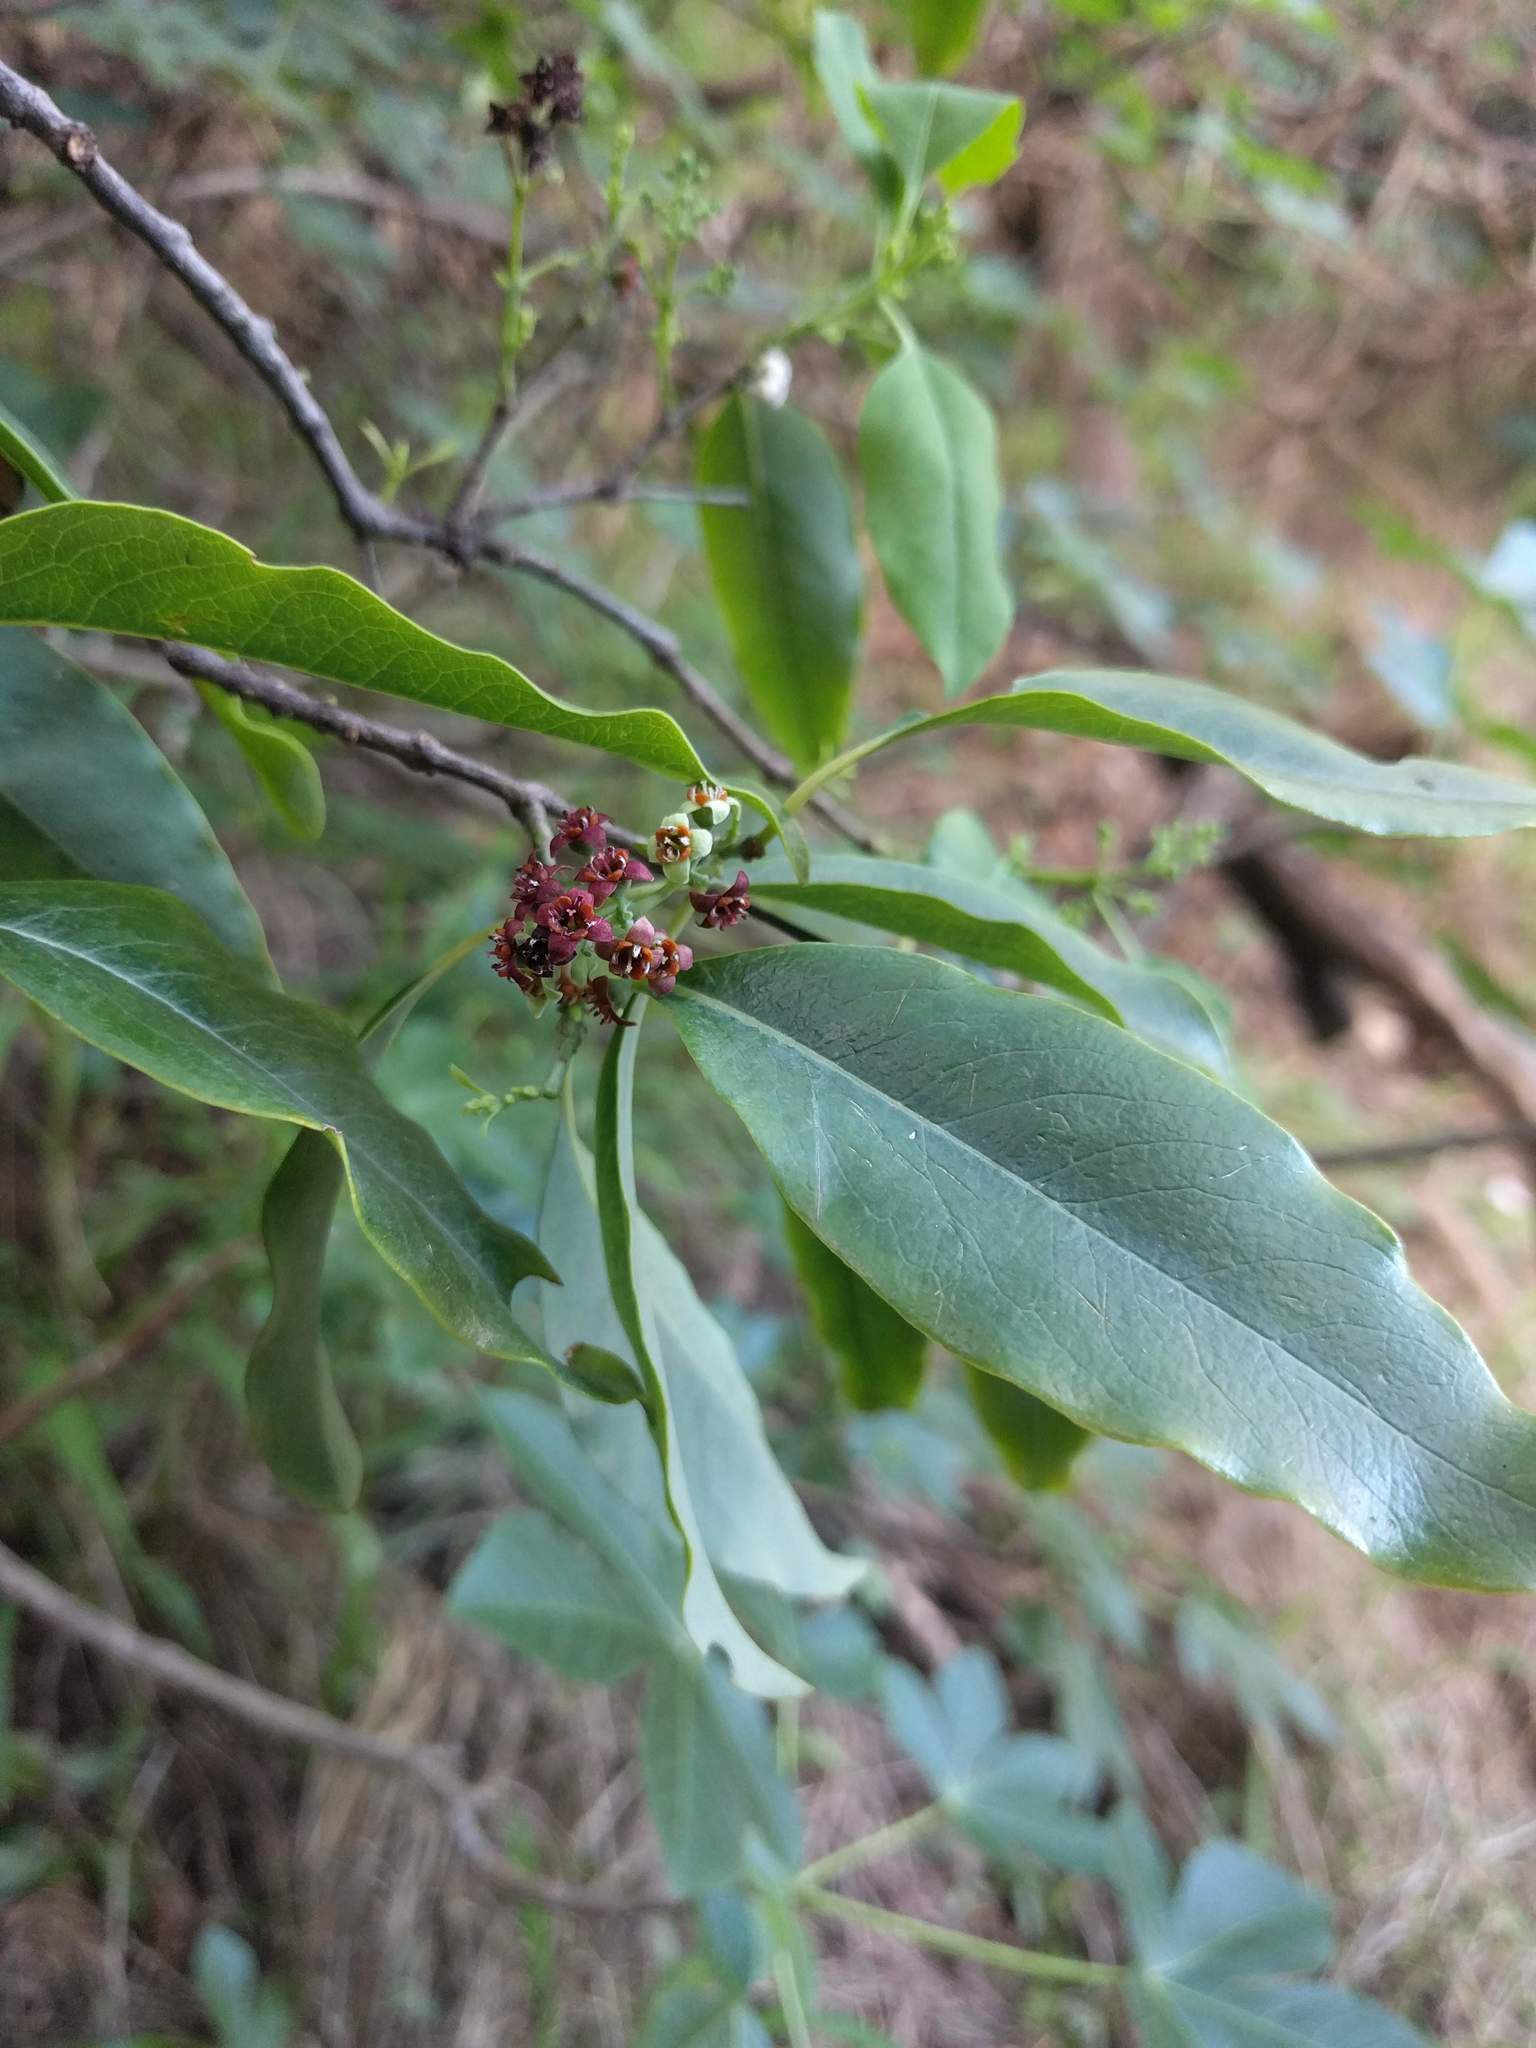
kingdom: Plantae
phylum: Tracheophyta
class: Magnoliopsida
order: Santalales
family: Santalaceae
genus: Santalum
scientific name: Santalum album
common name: Indian sandalwood
